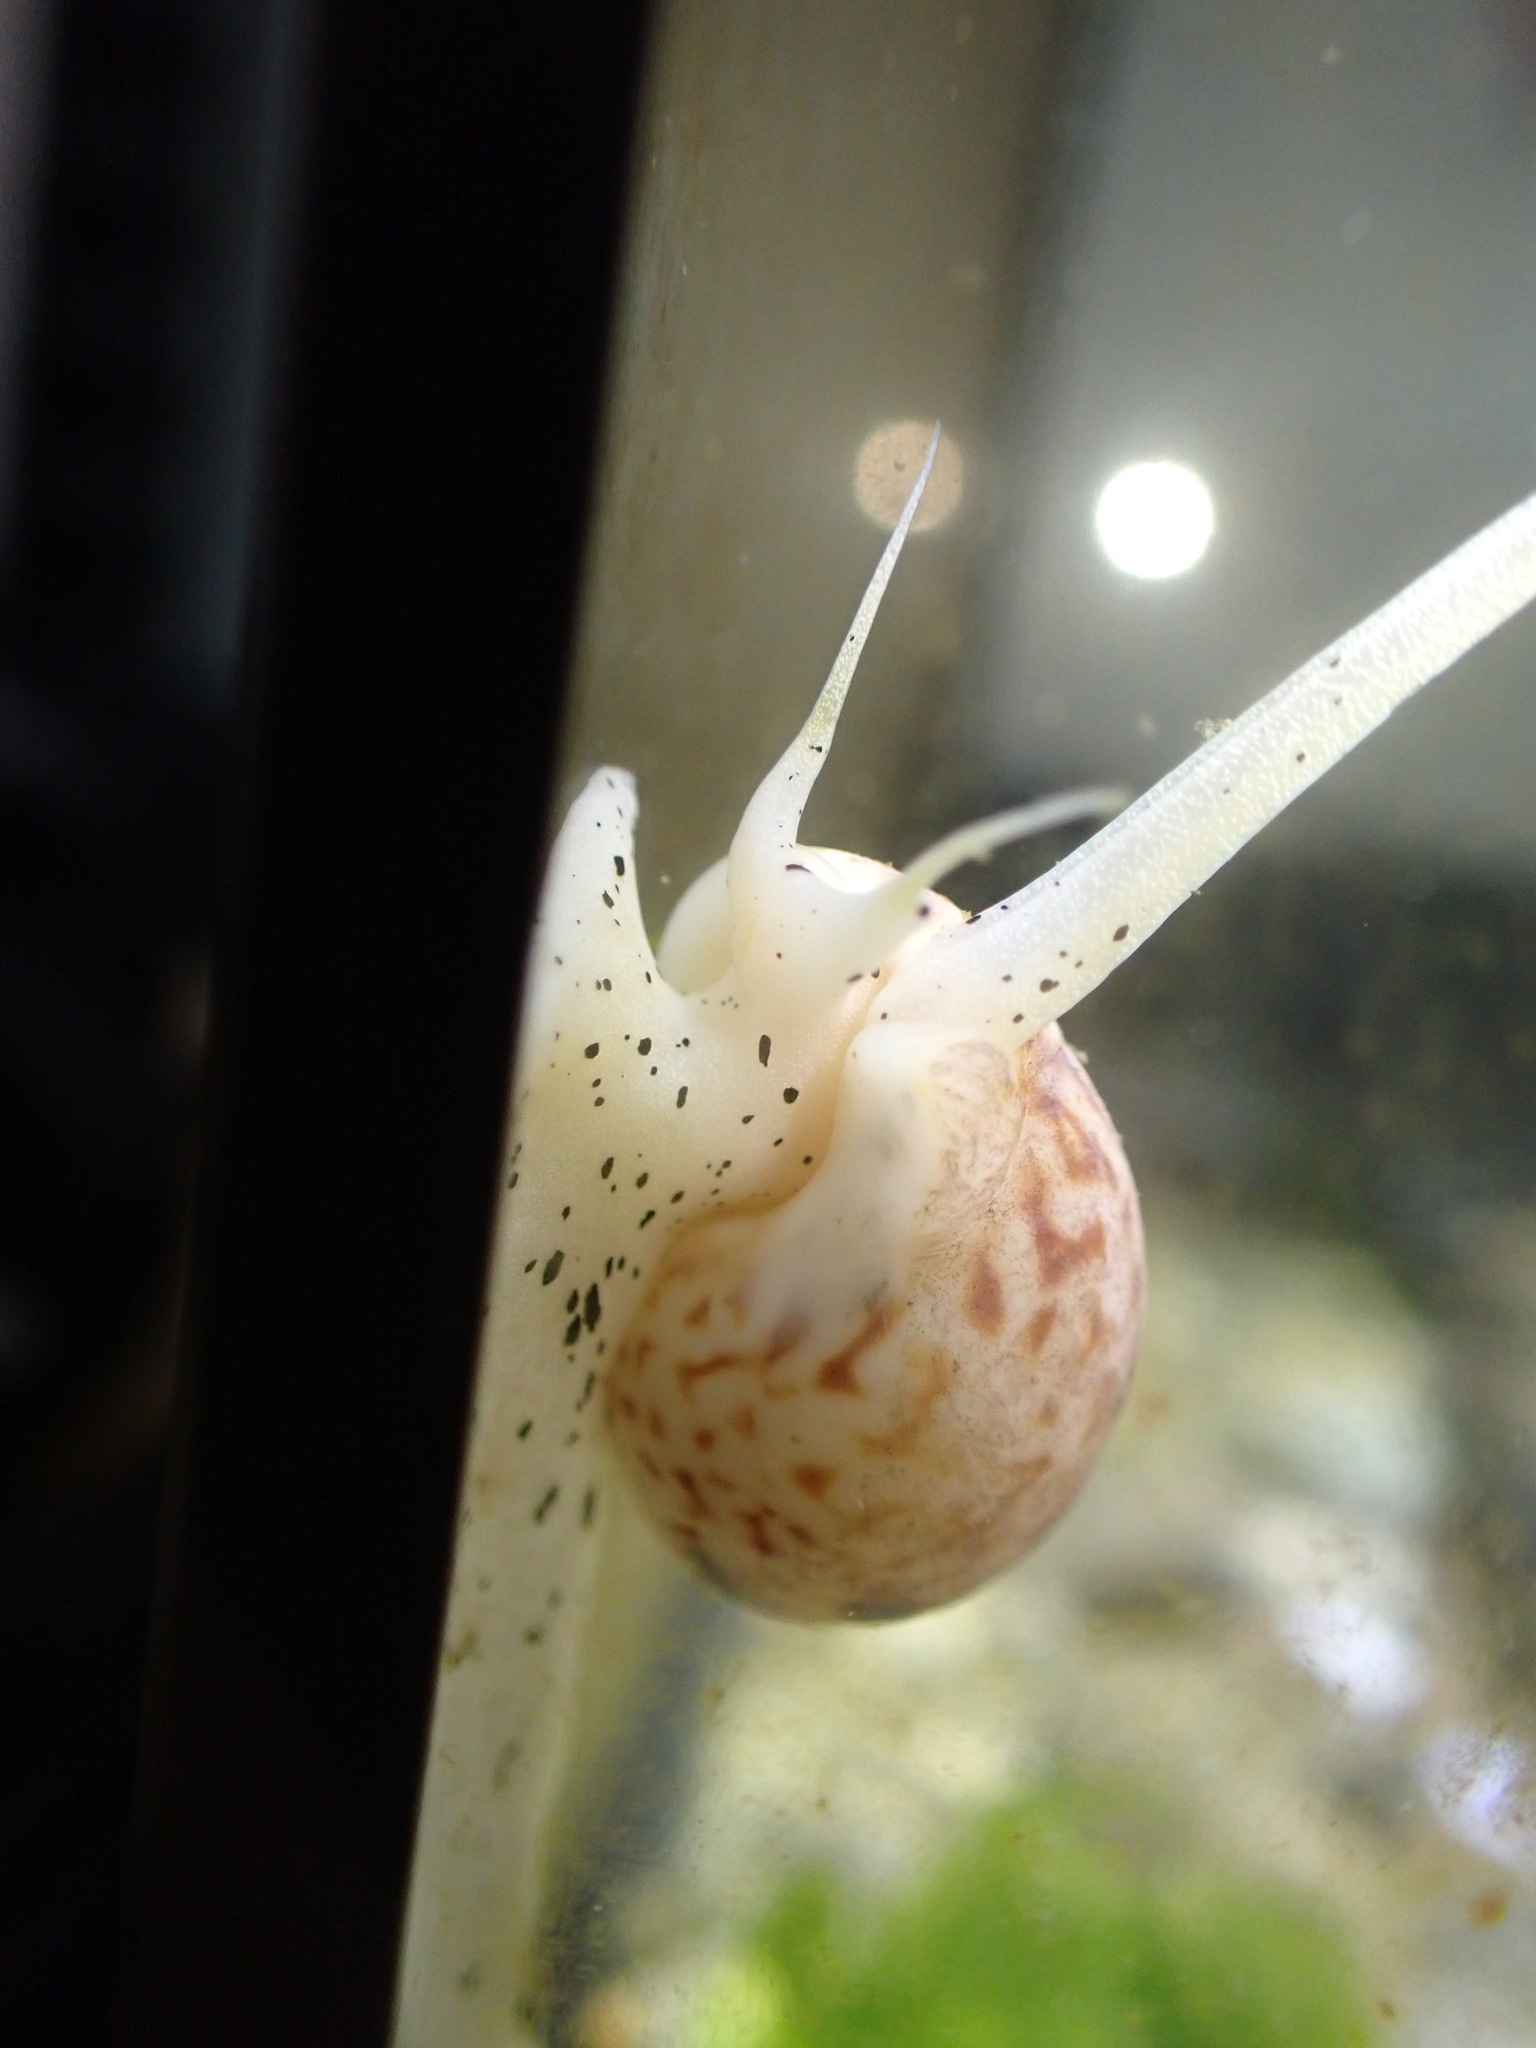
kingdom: Animalia
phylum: Mollusca
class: Gastropoda
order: Neogastropoda
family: Nassariidae
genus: Nassarius
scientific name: Nassarius spiratus
